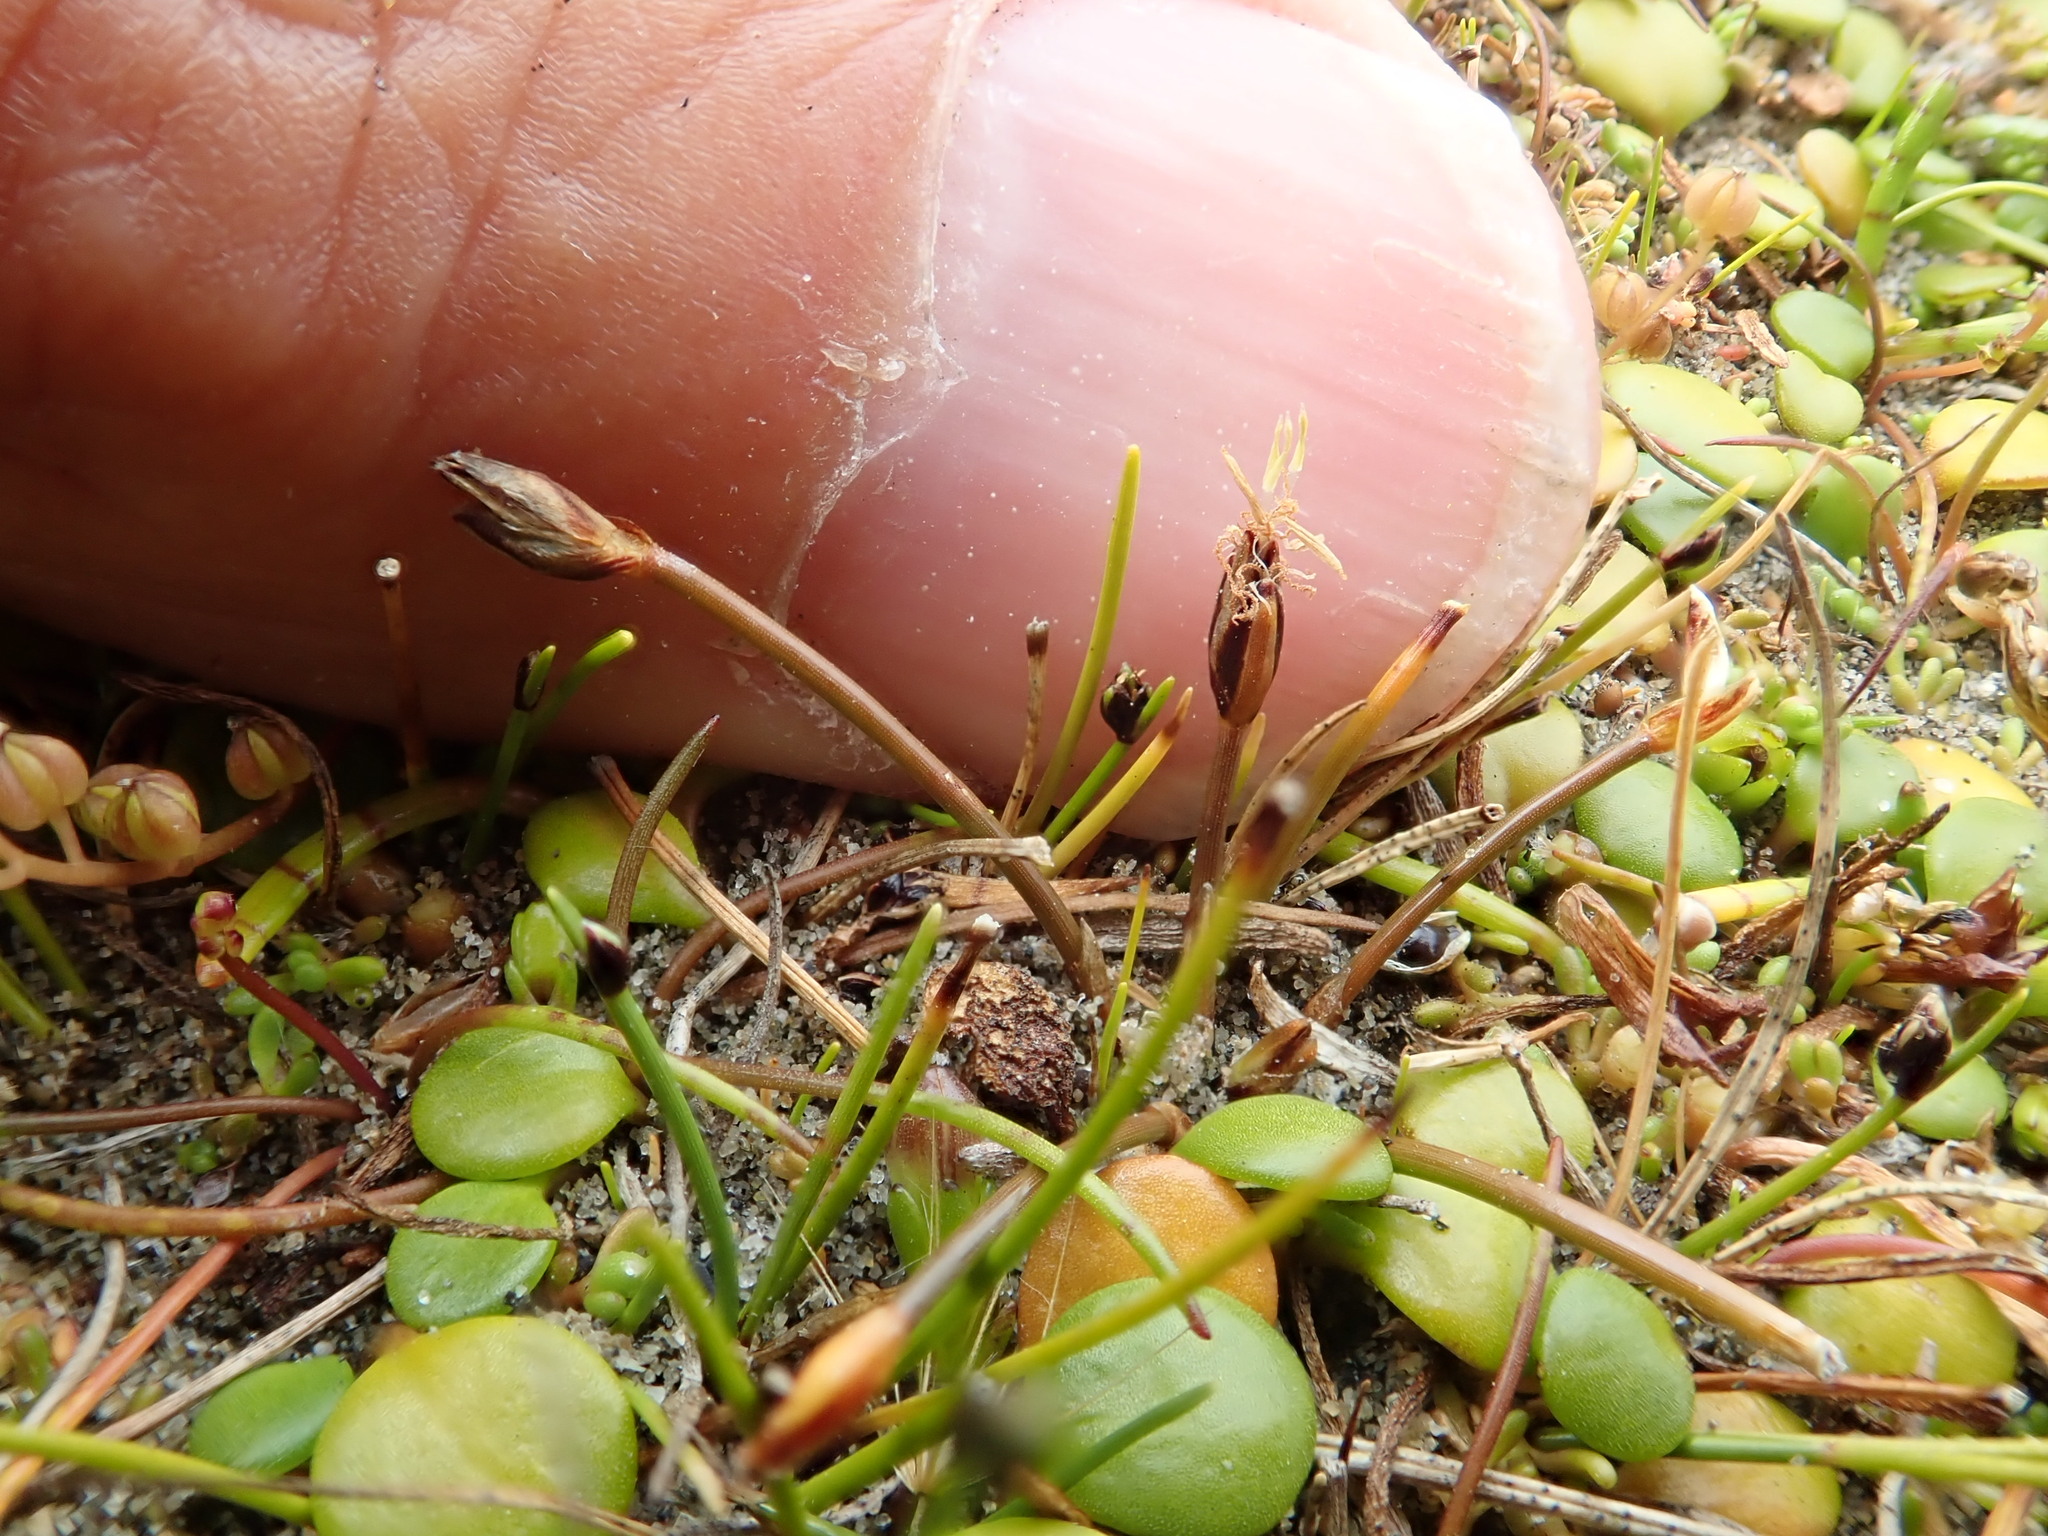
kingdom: Plantae
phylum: Tracheophyta
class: Liliopsida
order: Poales
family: Cyperaceae
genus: Eleocharis
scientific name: Eleocharis neozelandica
